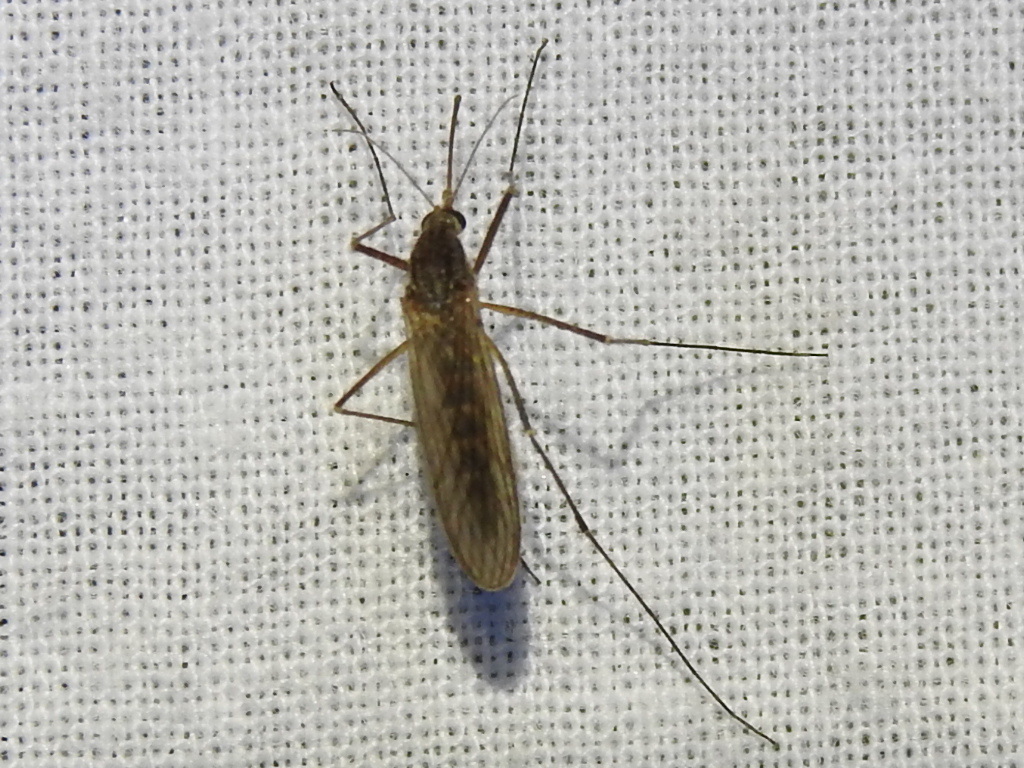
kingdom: Animalia
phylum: Arthropoda
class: Insecta
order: Diptera
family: Culicidae
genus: Culiseta
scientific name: Culiseta inornata
